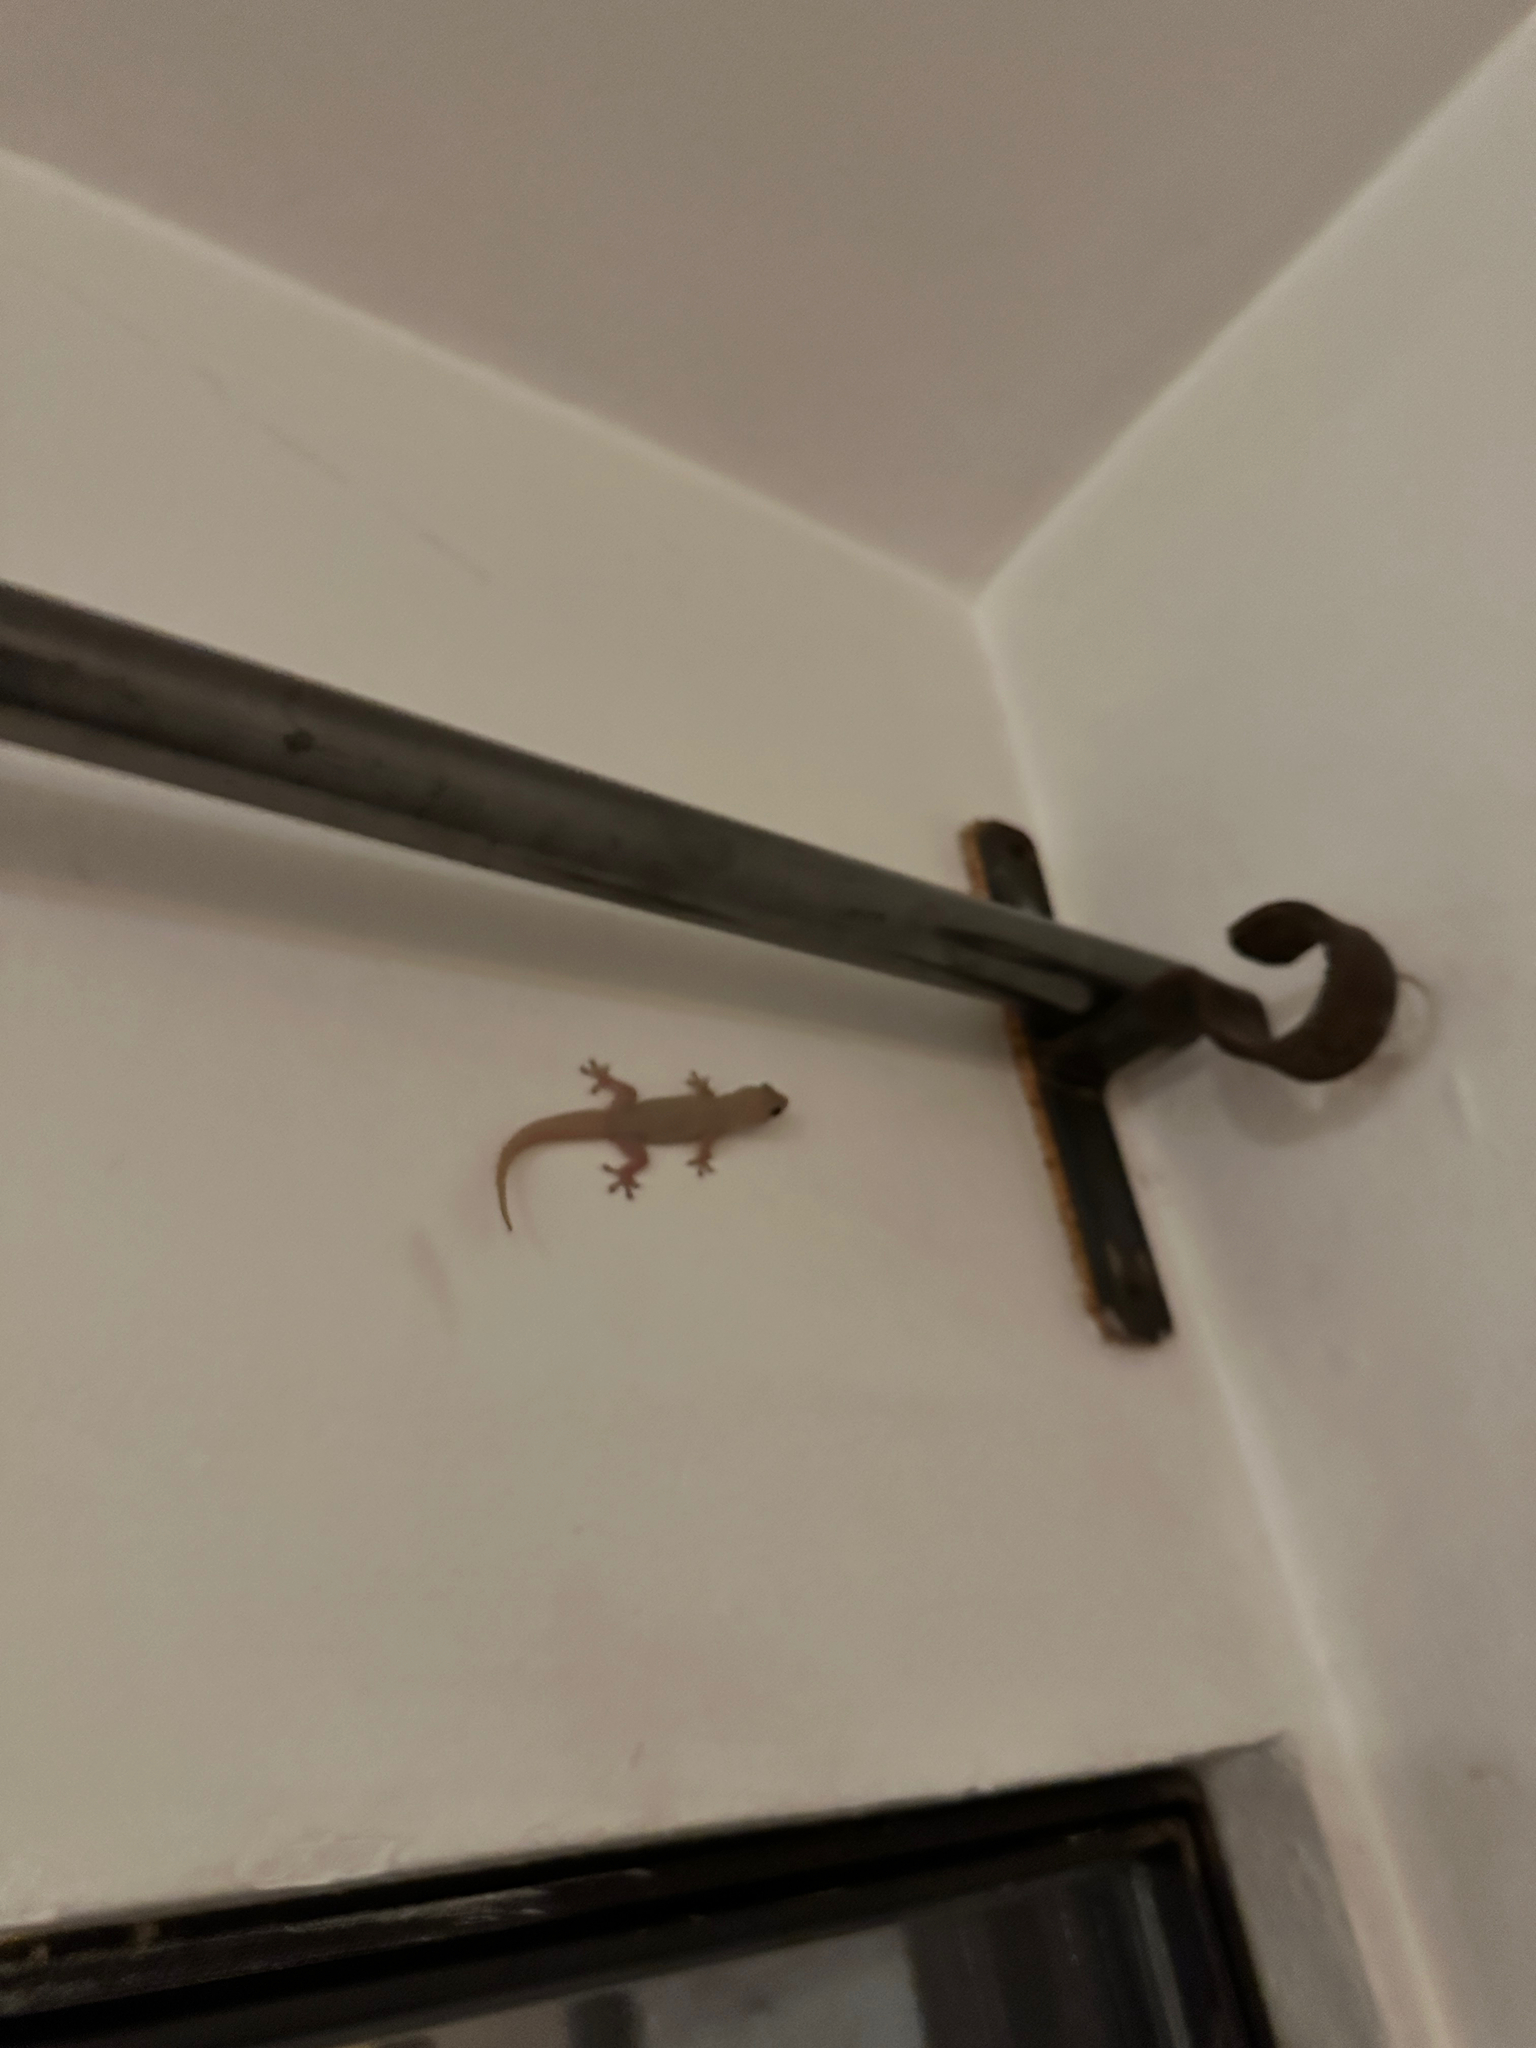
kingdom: Animalia
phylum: Chordata
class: Squamata
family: Gekkonidae
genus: Hemidactylus
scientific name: Hemidactylus frenatus
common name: Common house gecko
